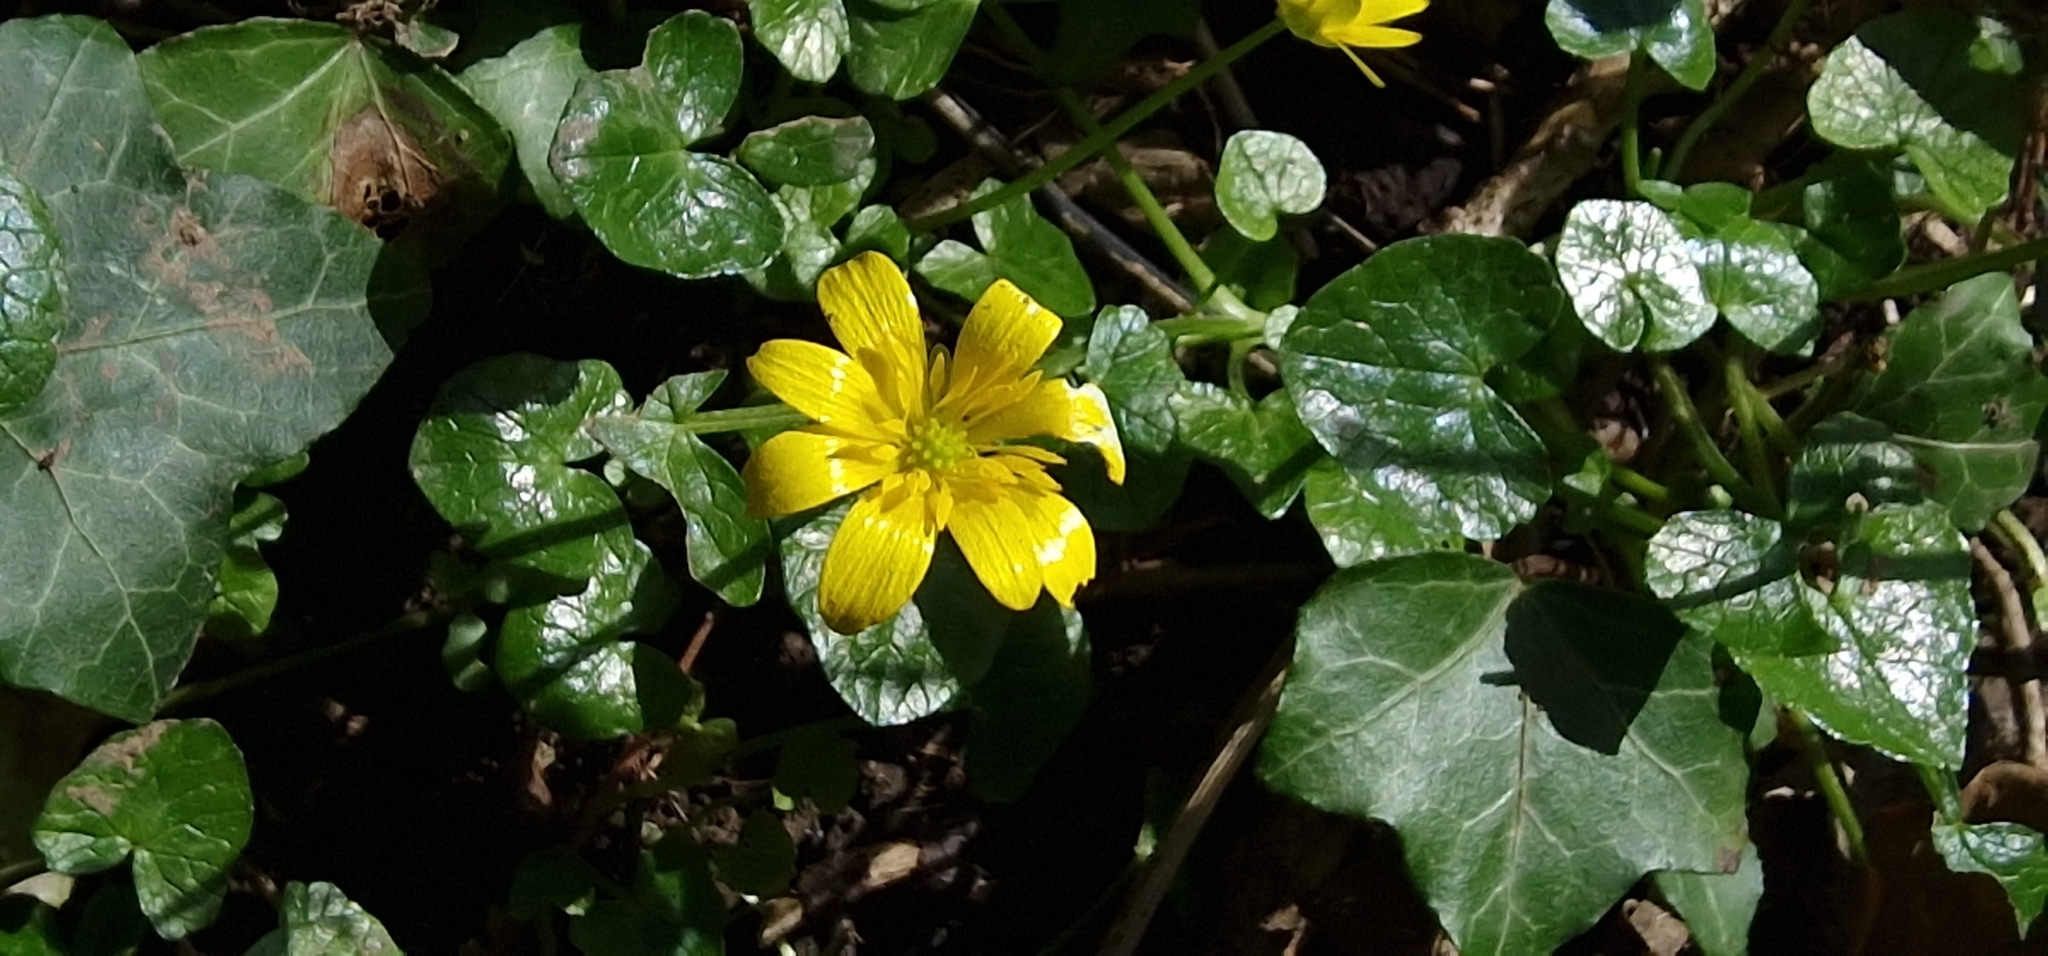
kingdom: Plantae
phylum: Tracheophyta
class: Magnoliopsida
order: Ranunculales
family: Ranunculaceae
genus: Ficaria
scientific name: Ficaria verna
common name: Lesser celandine
